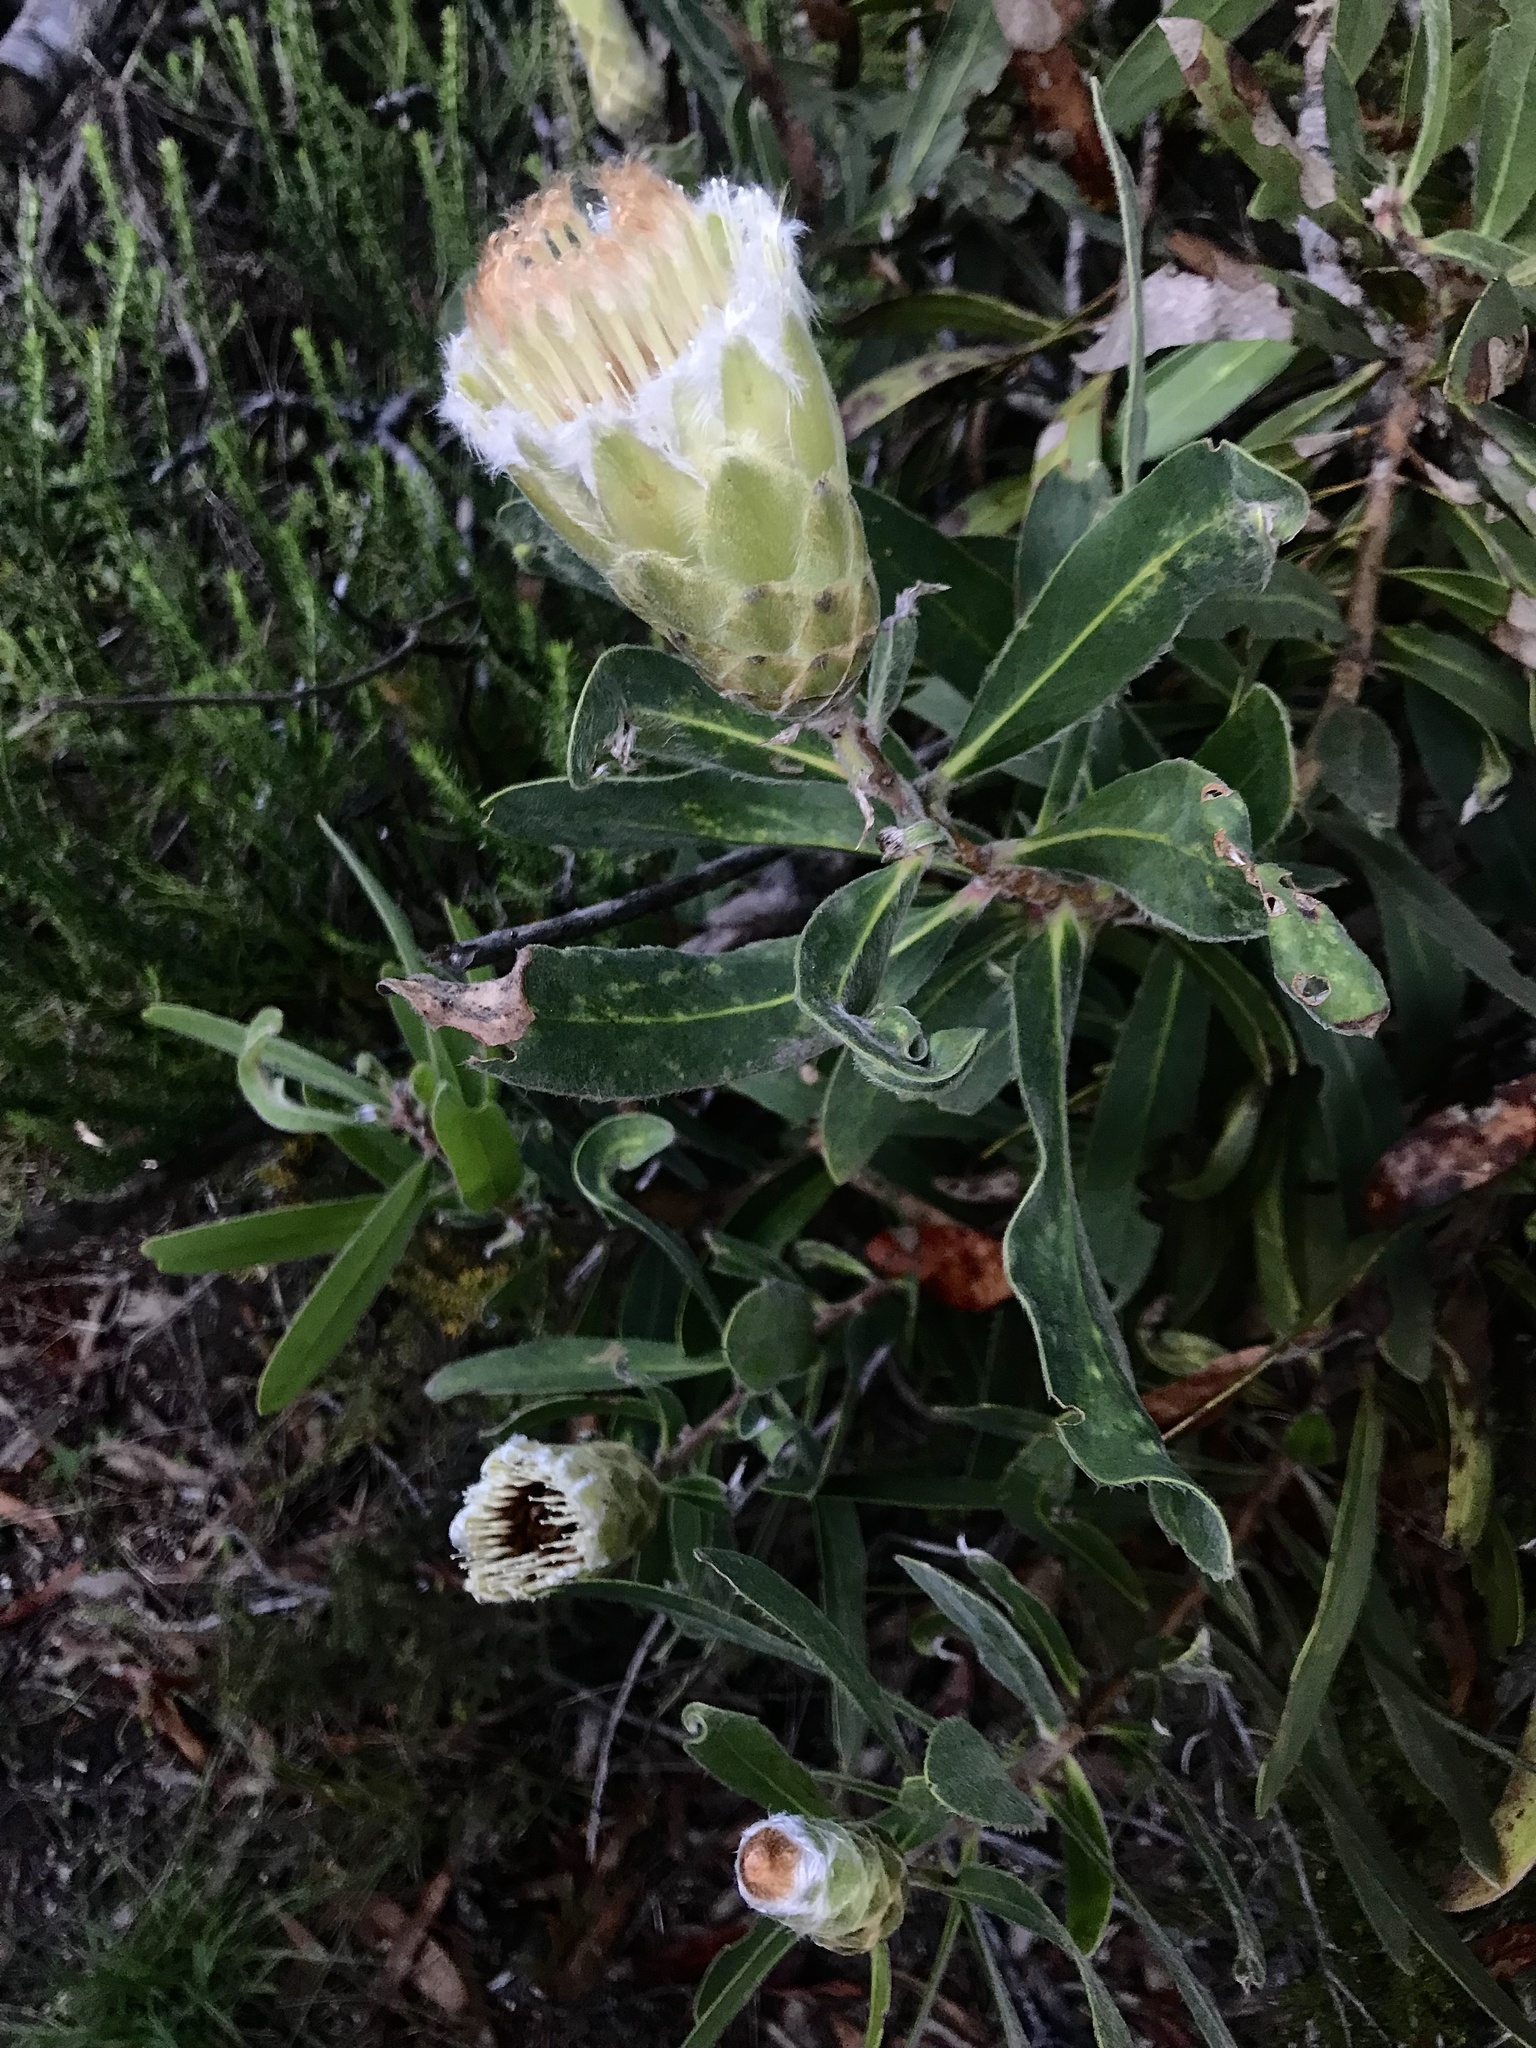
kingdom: Plantae
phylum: Tracheophyta
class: Magnoliopsida
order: Proteales
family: Proteaceae
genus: Protea
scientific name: Protea mundii
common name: Forest sugarbush
